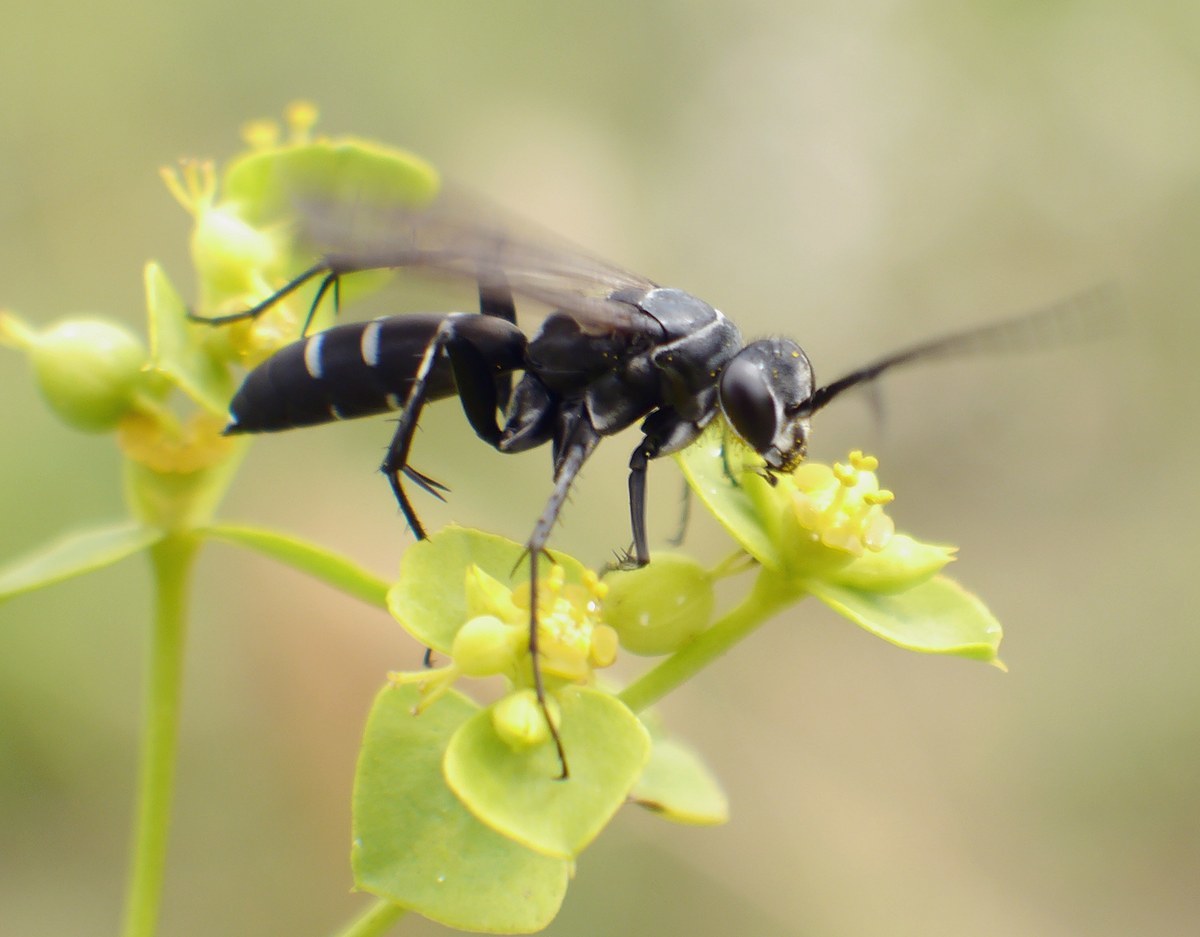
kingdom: Animalia
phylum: Arthropoda
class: Insecta
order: Hymenoptera
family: Pompilidae
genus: Dicyrtomellus
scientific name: Dicyrtomellus tingitanus
